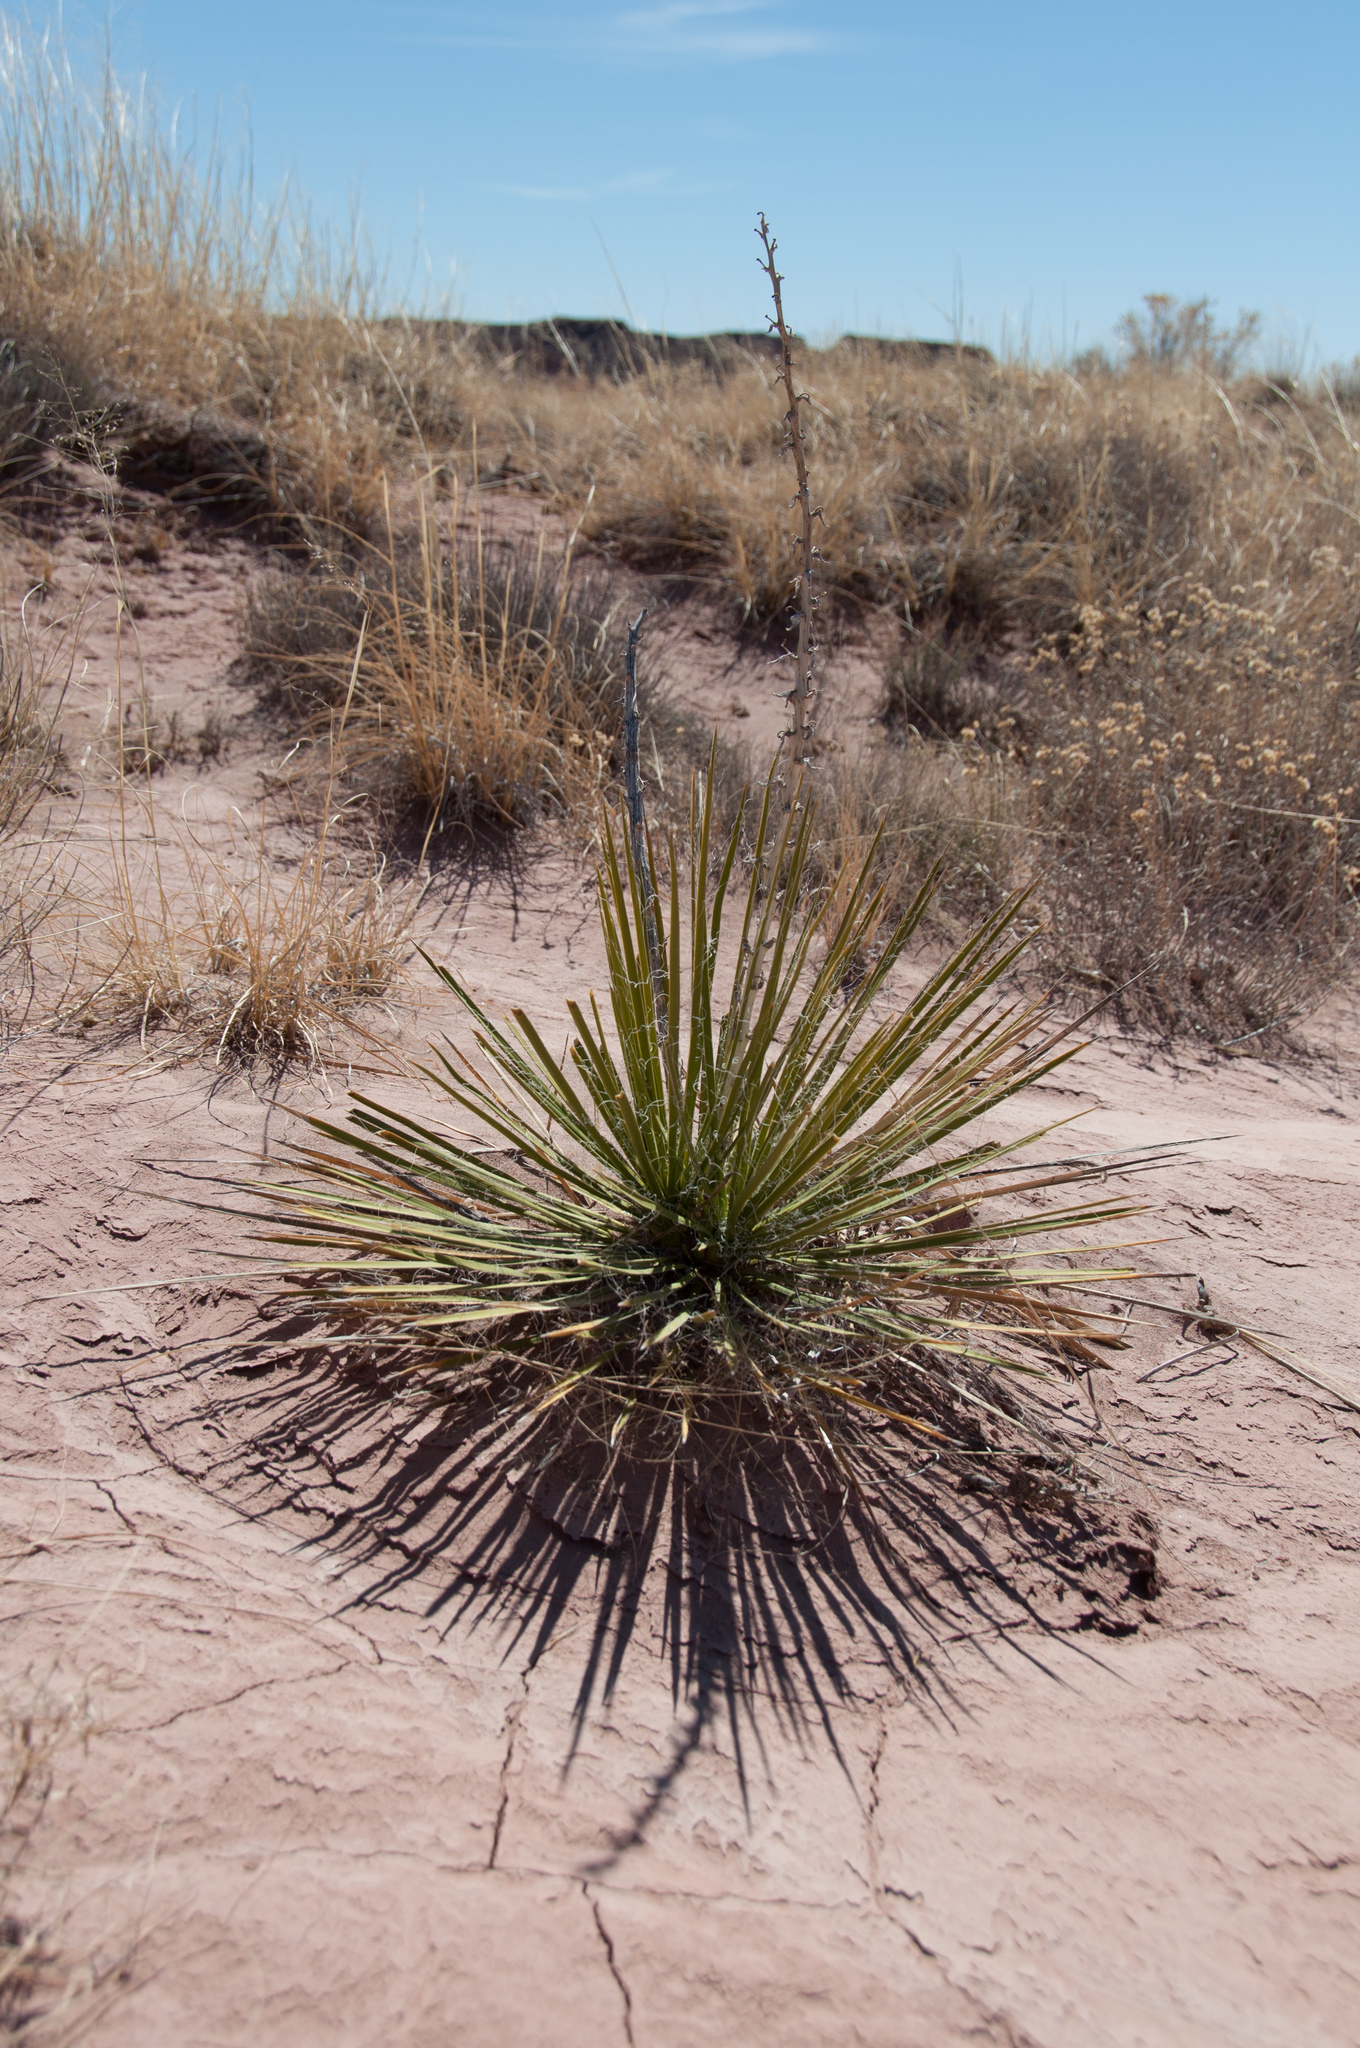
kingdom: Plantae
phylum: Tracheophyta
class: Liliopsida
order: Asparagales
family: Asparagaceae
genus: Yucca
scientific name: Yucca baileyi
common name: Alpine yucca
